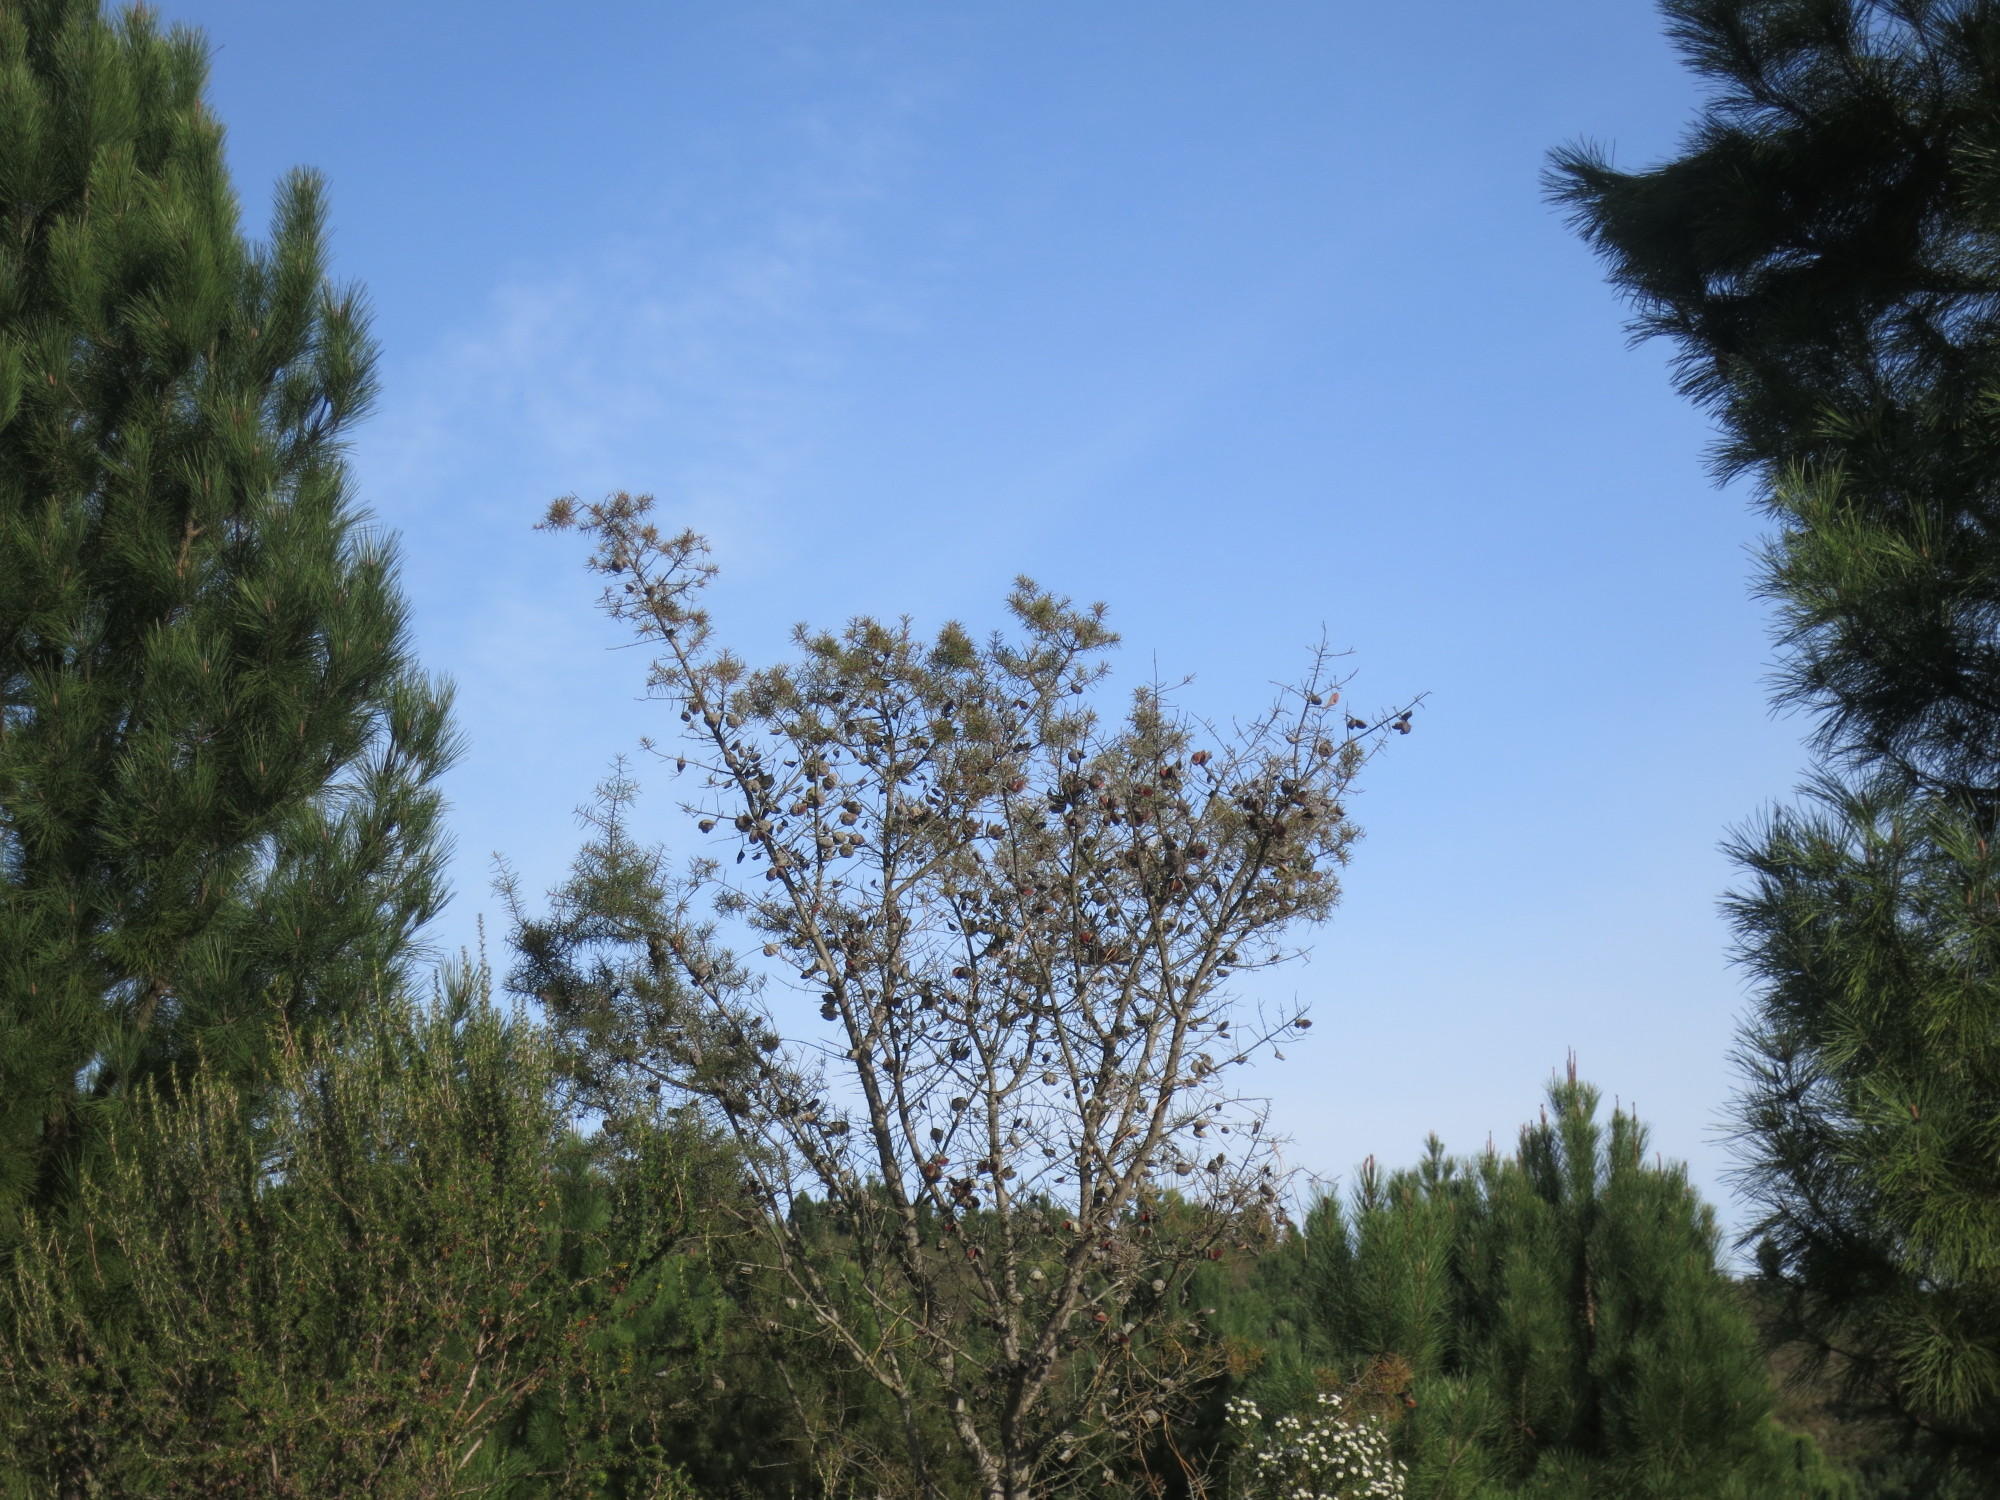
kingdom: Plantae
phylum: Tracheophyta
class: Magnoliopsida
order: Proteales
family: Proteaceae
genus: Hakea
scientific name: Hakea sericea
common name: Needle bush
